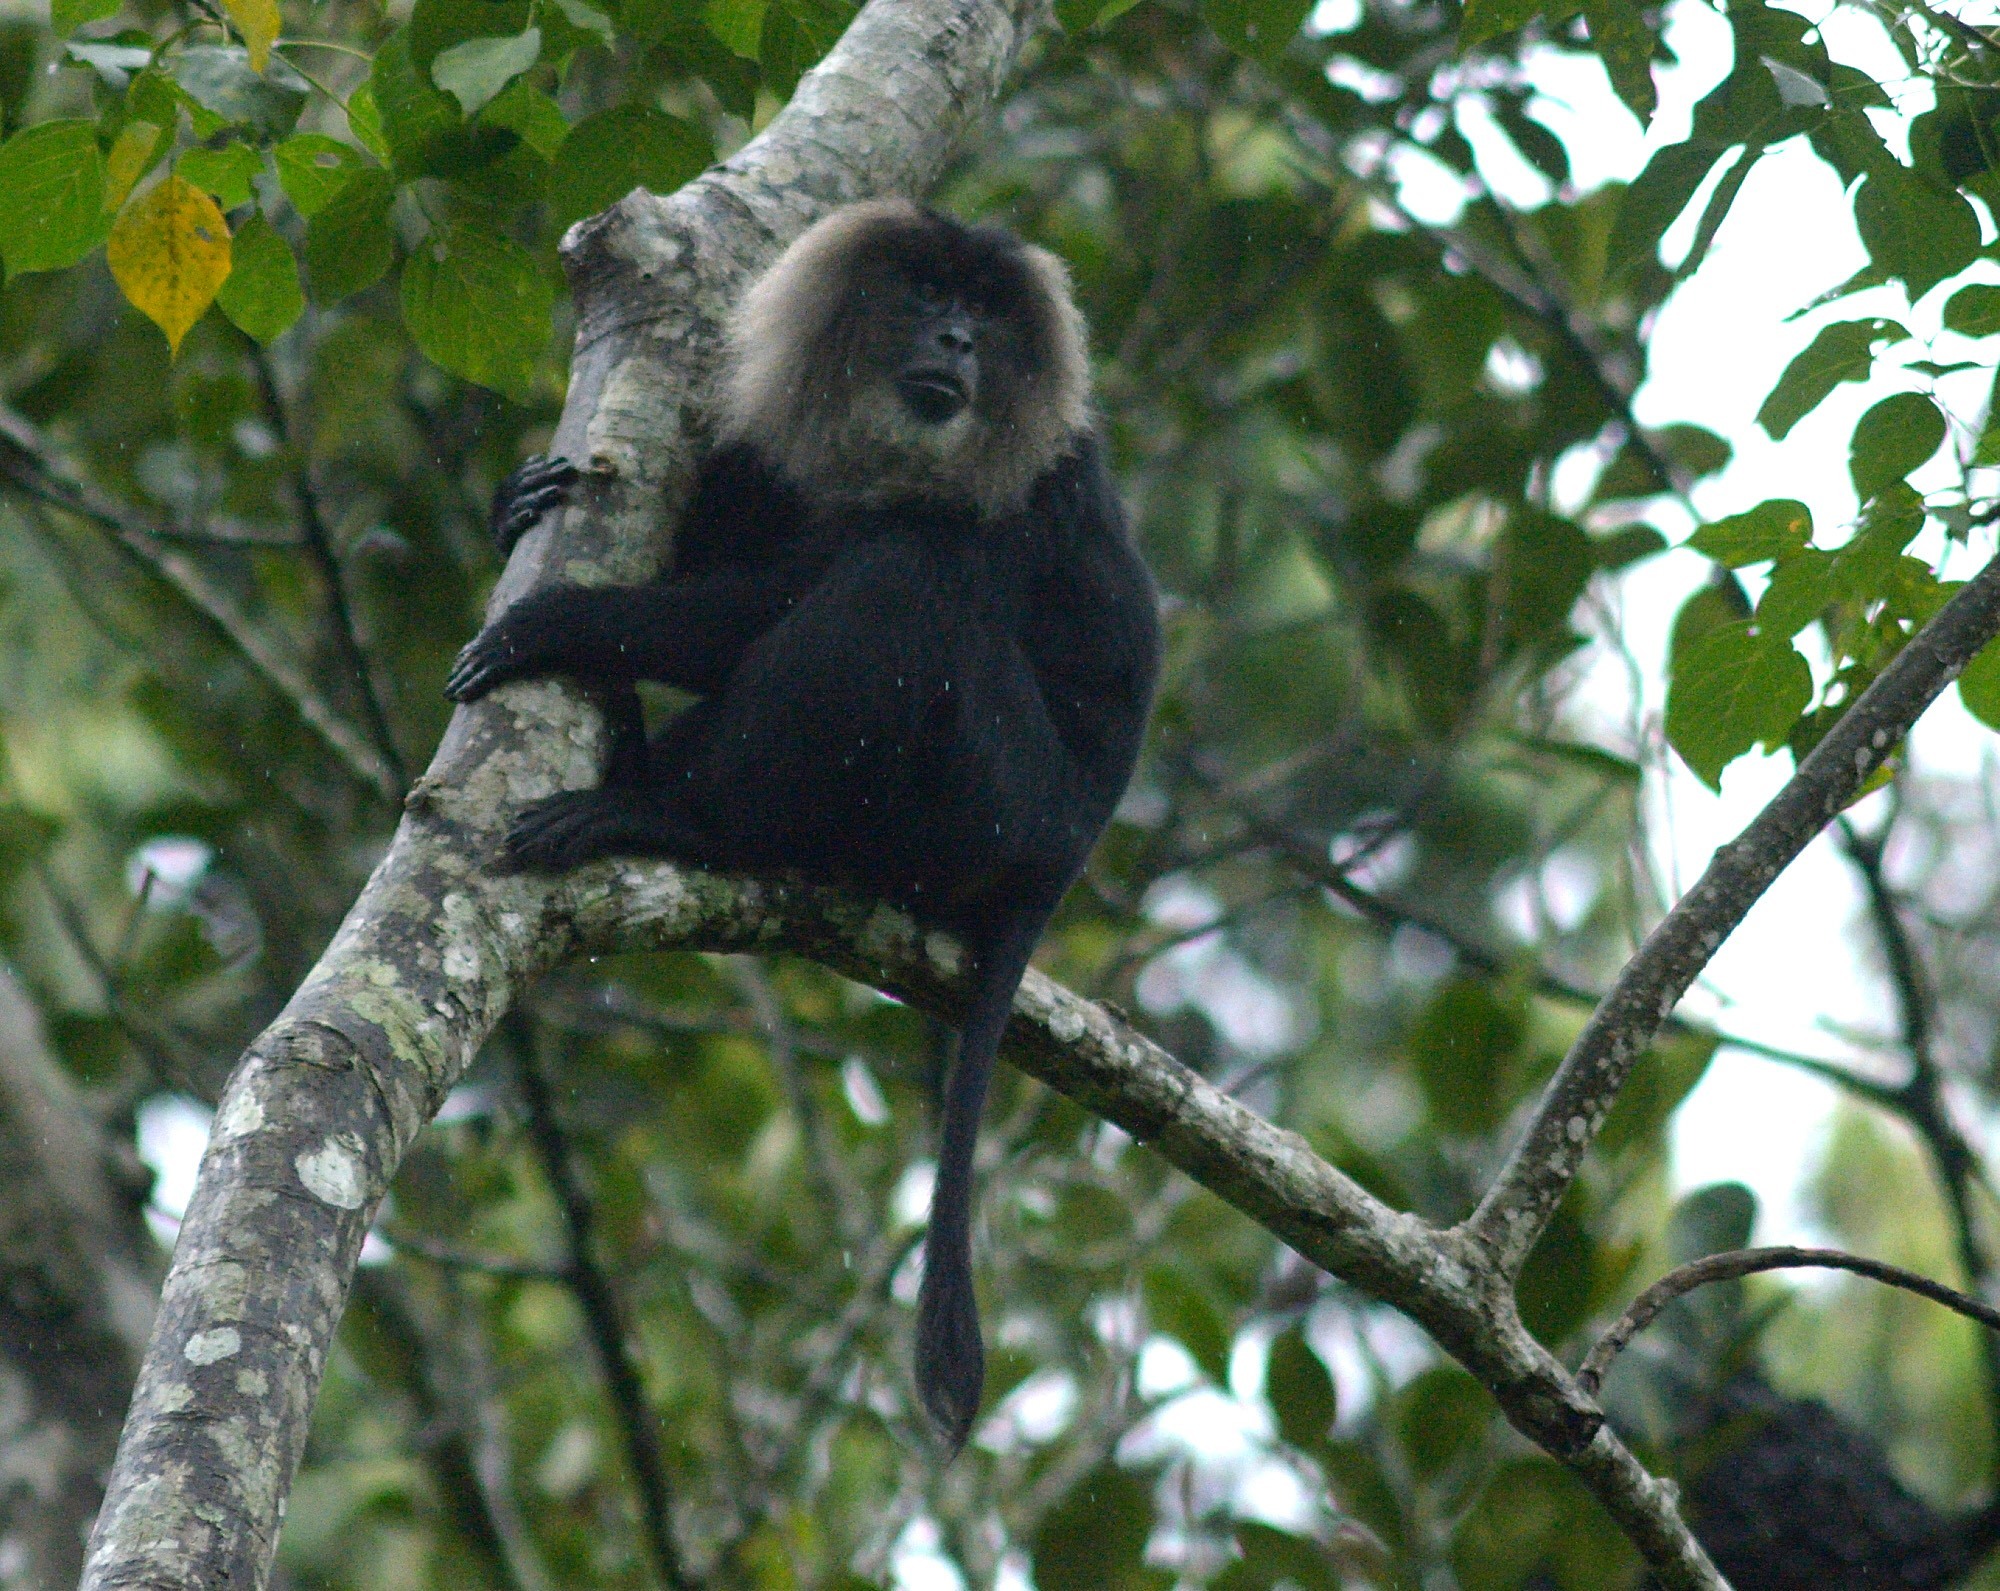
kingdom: Animalia
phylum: Chordata
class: Mammalia
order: Primates
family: Cercopithecidae
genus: Macaca
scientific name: Macaca silenus
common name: Lion-tailed macaque
